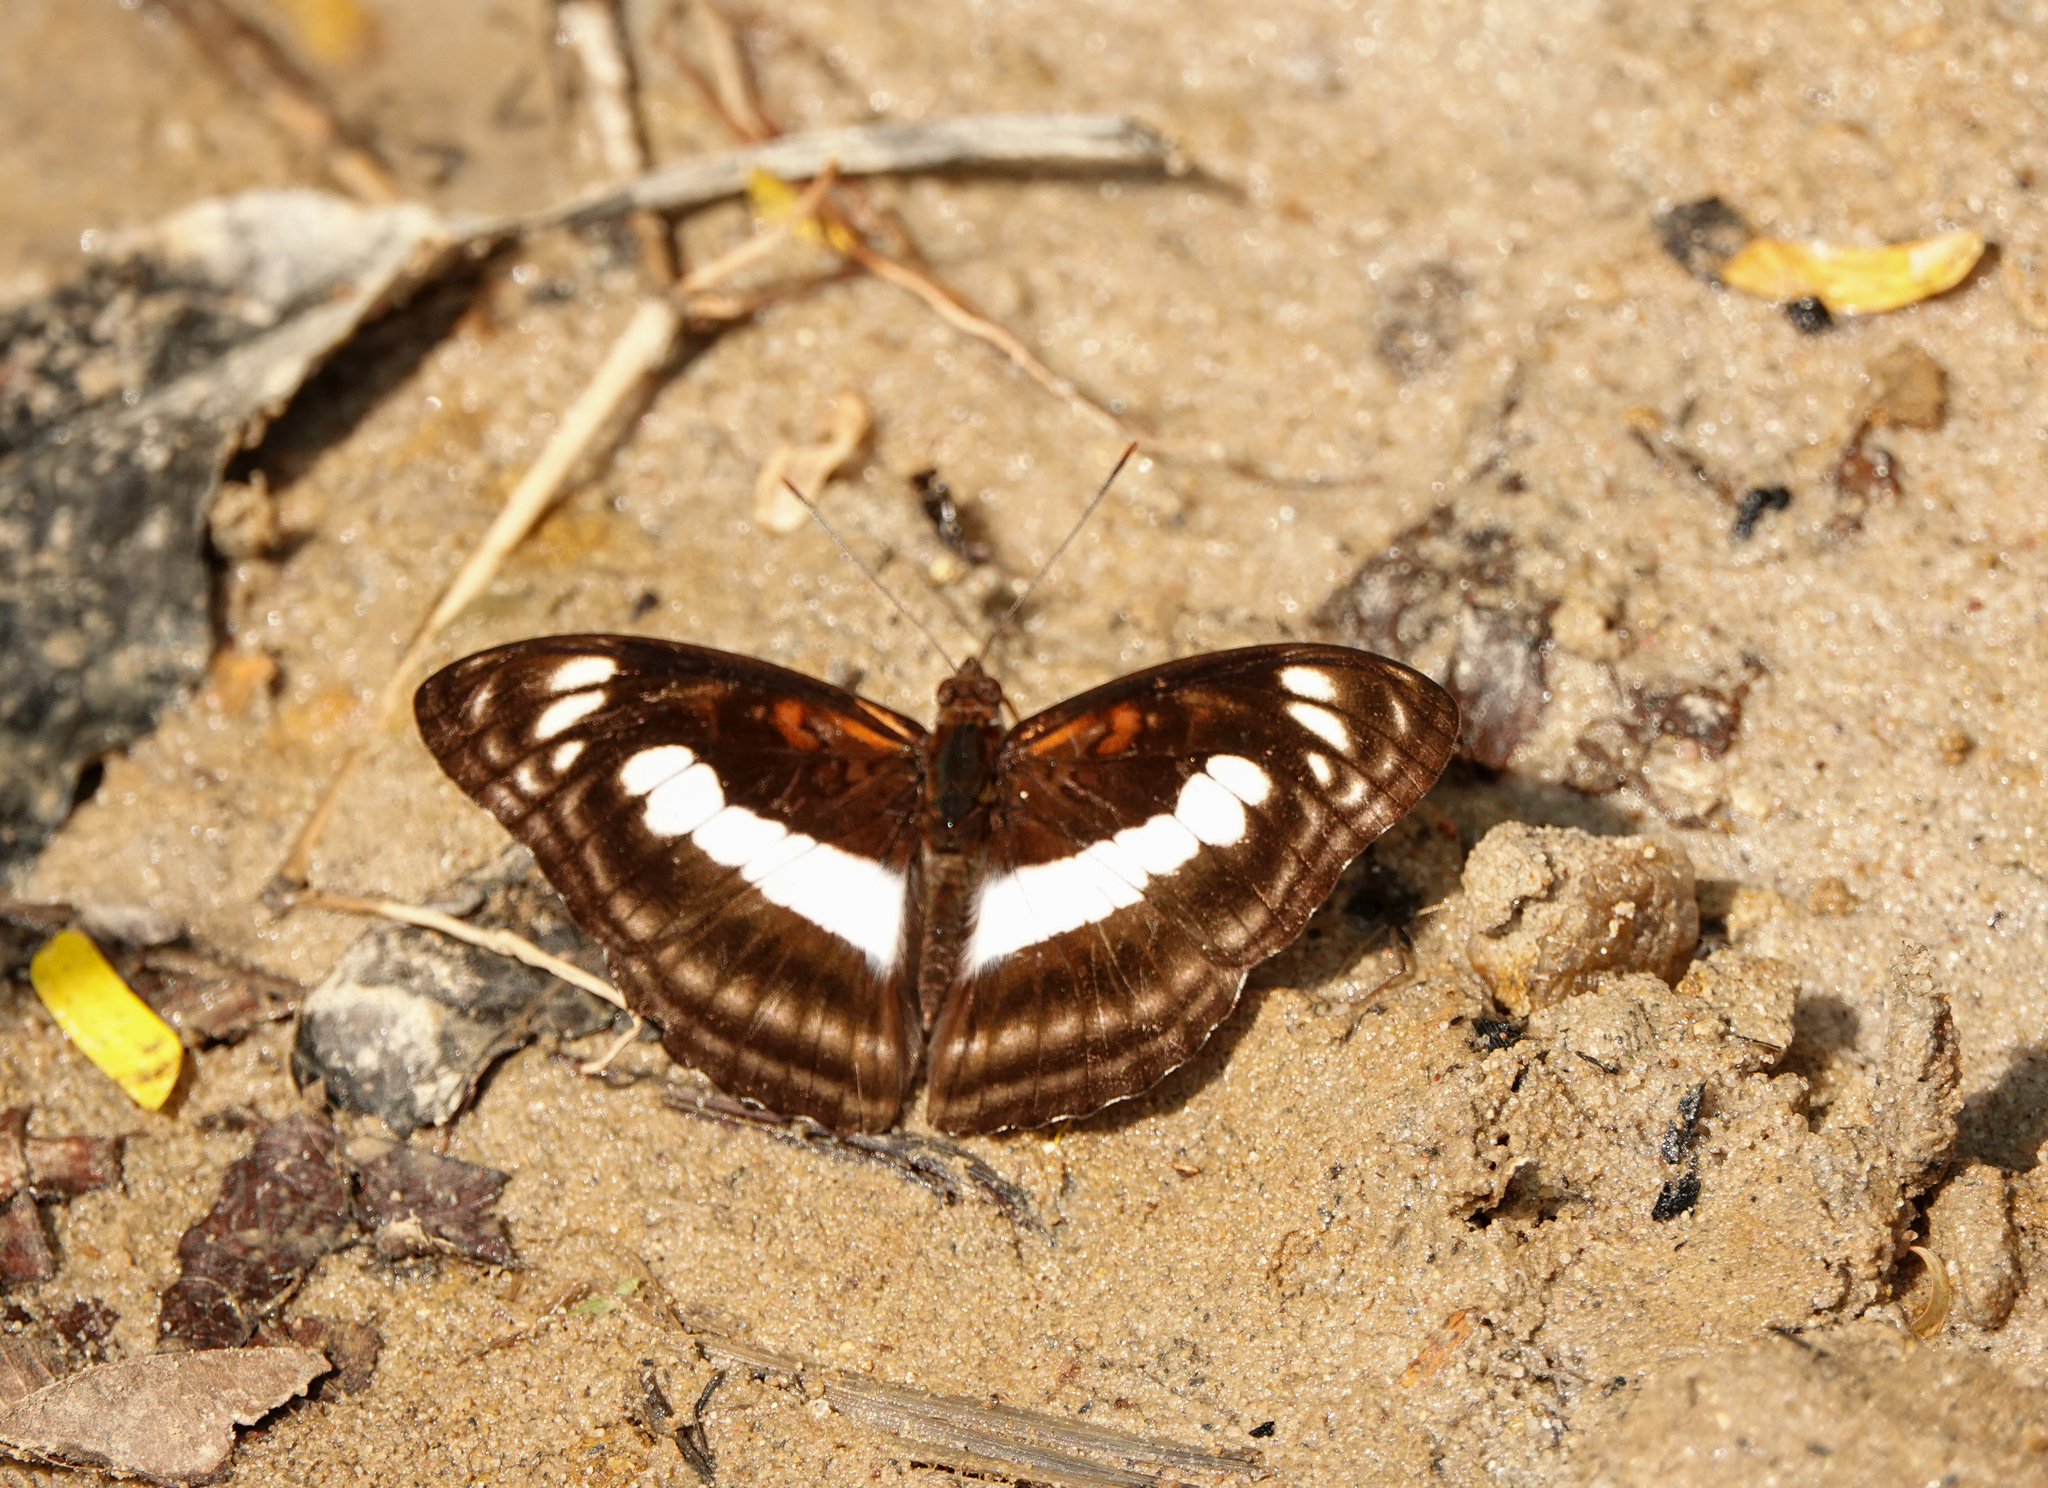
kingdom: Animalia
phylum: Arthropoda
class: Insecta
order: Lepidoptera
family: Nymphalidae
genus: Parathyma
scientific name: Parathyma selenophora
